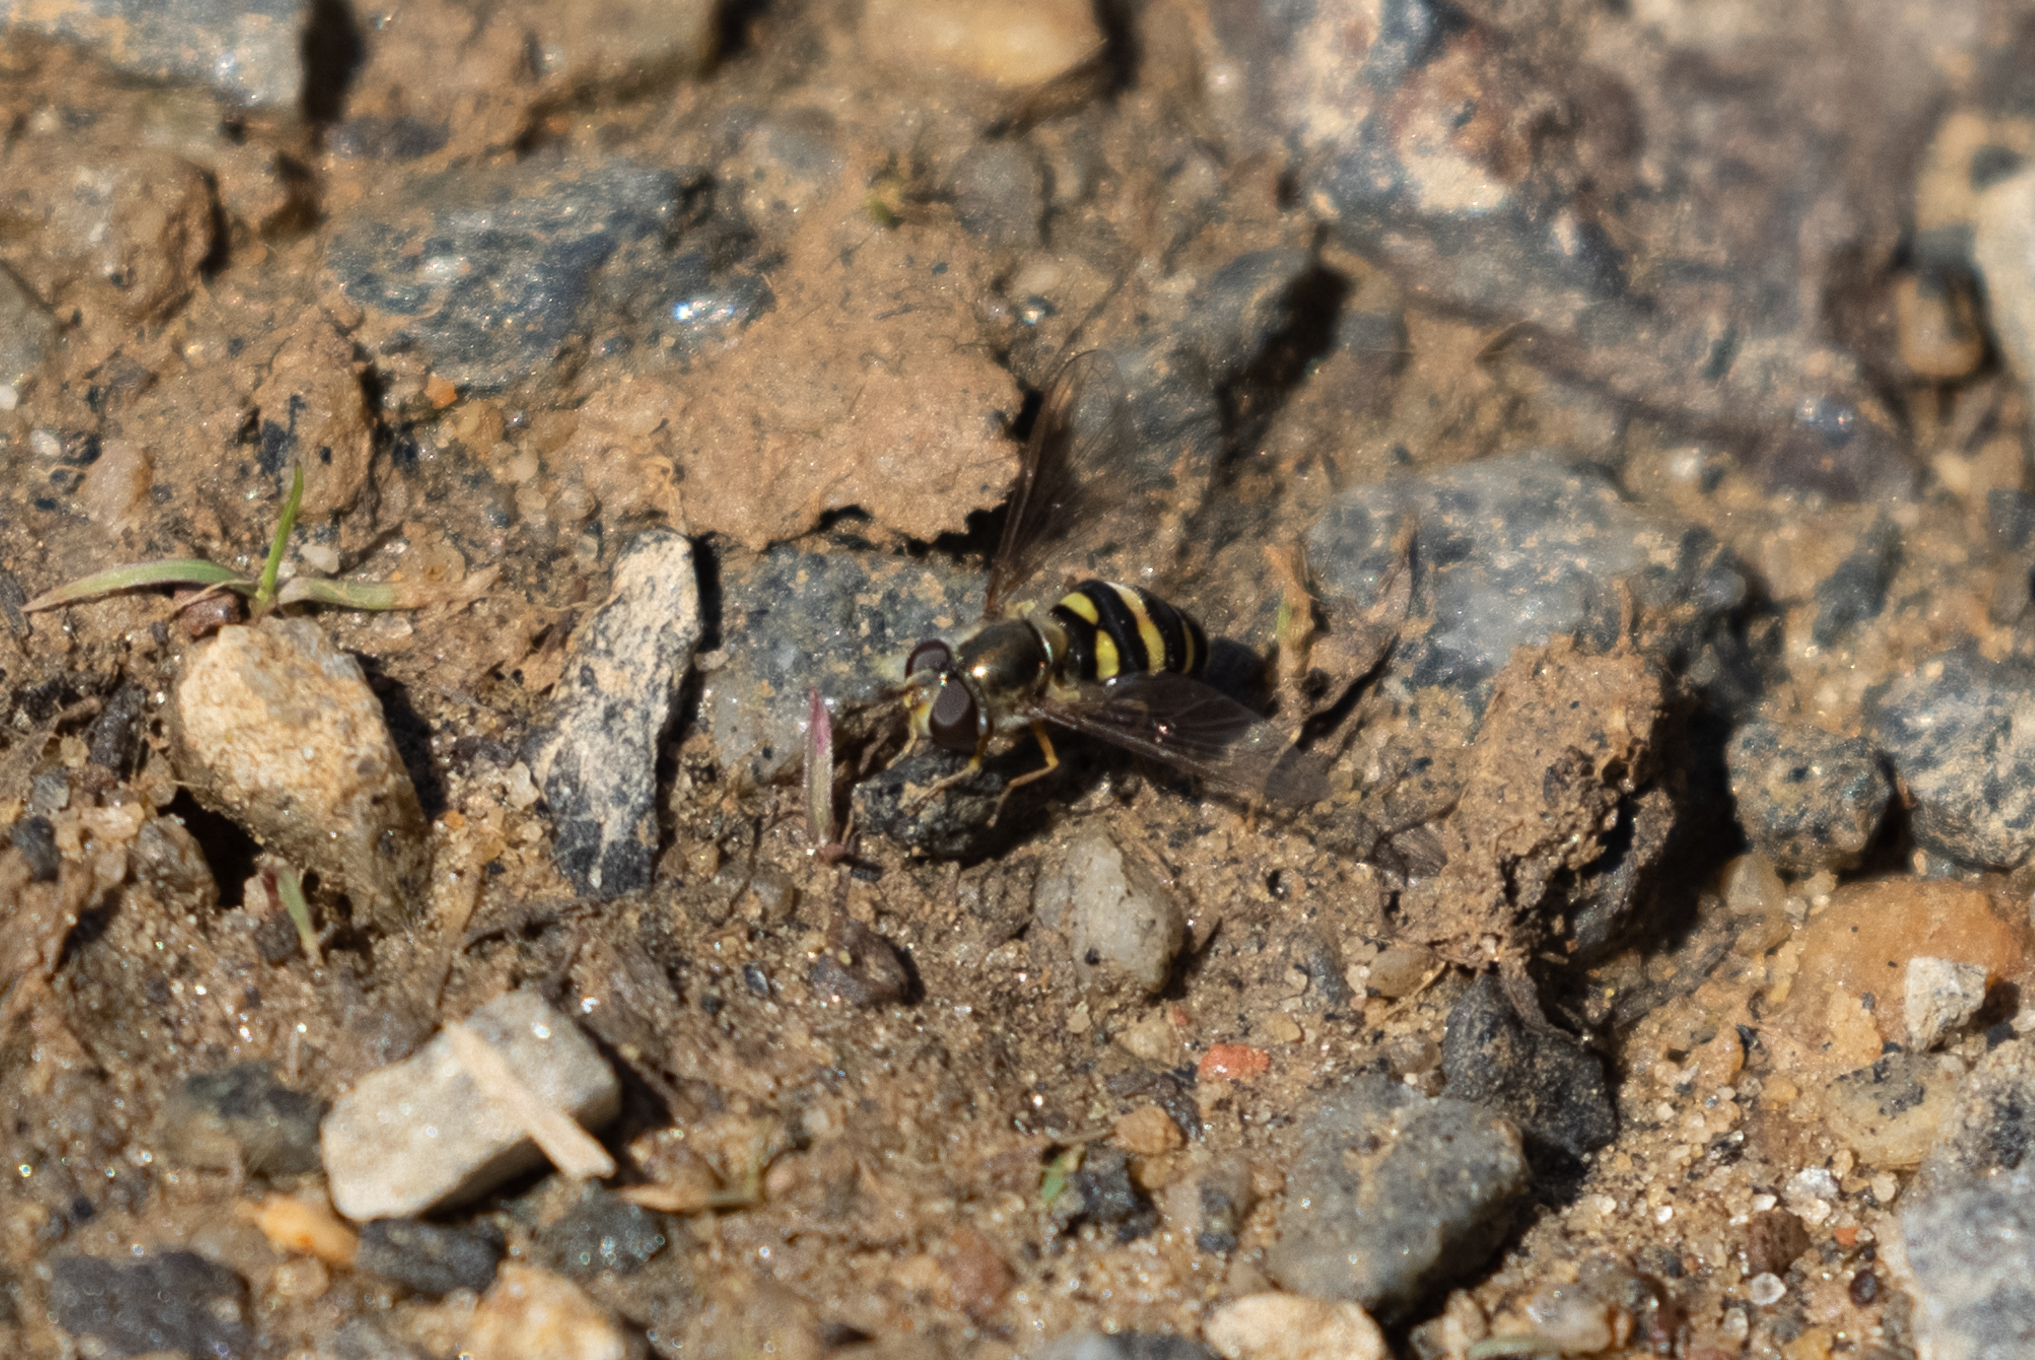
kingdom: Animalia
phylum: Arthropoda
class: Insecta
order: Diptera
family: Syrphidae
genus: Eupeodes
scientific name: Eupeodes
